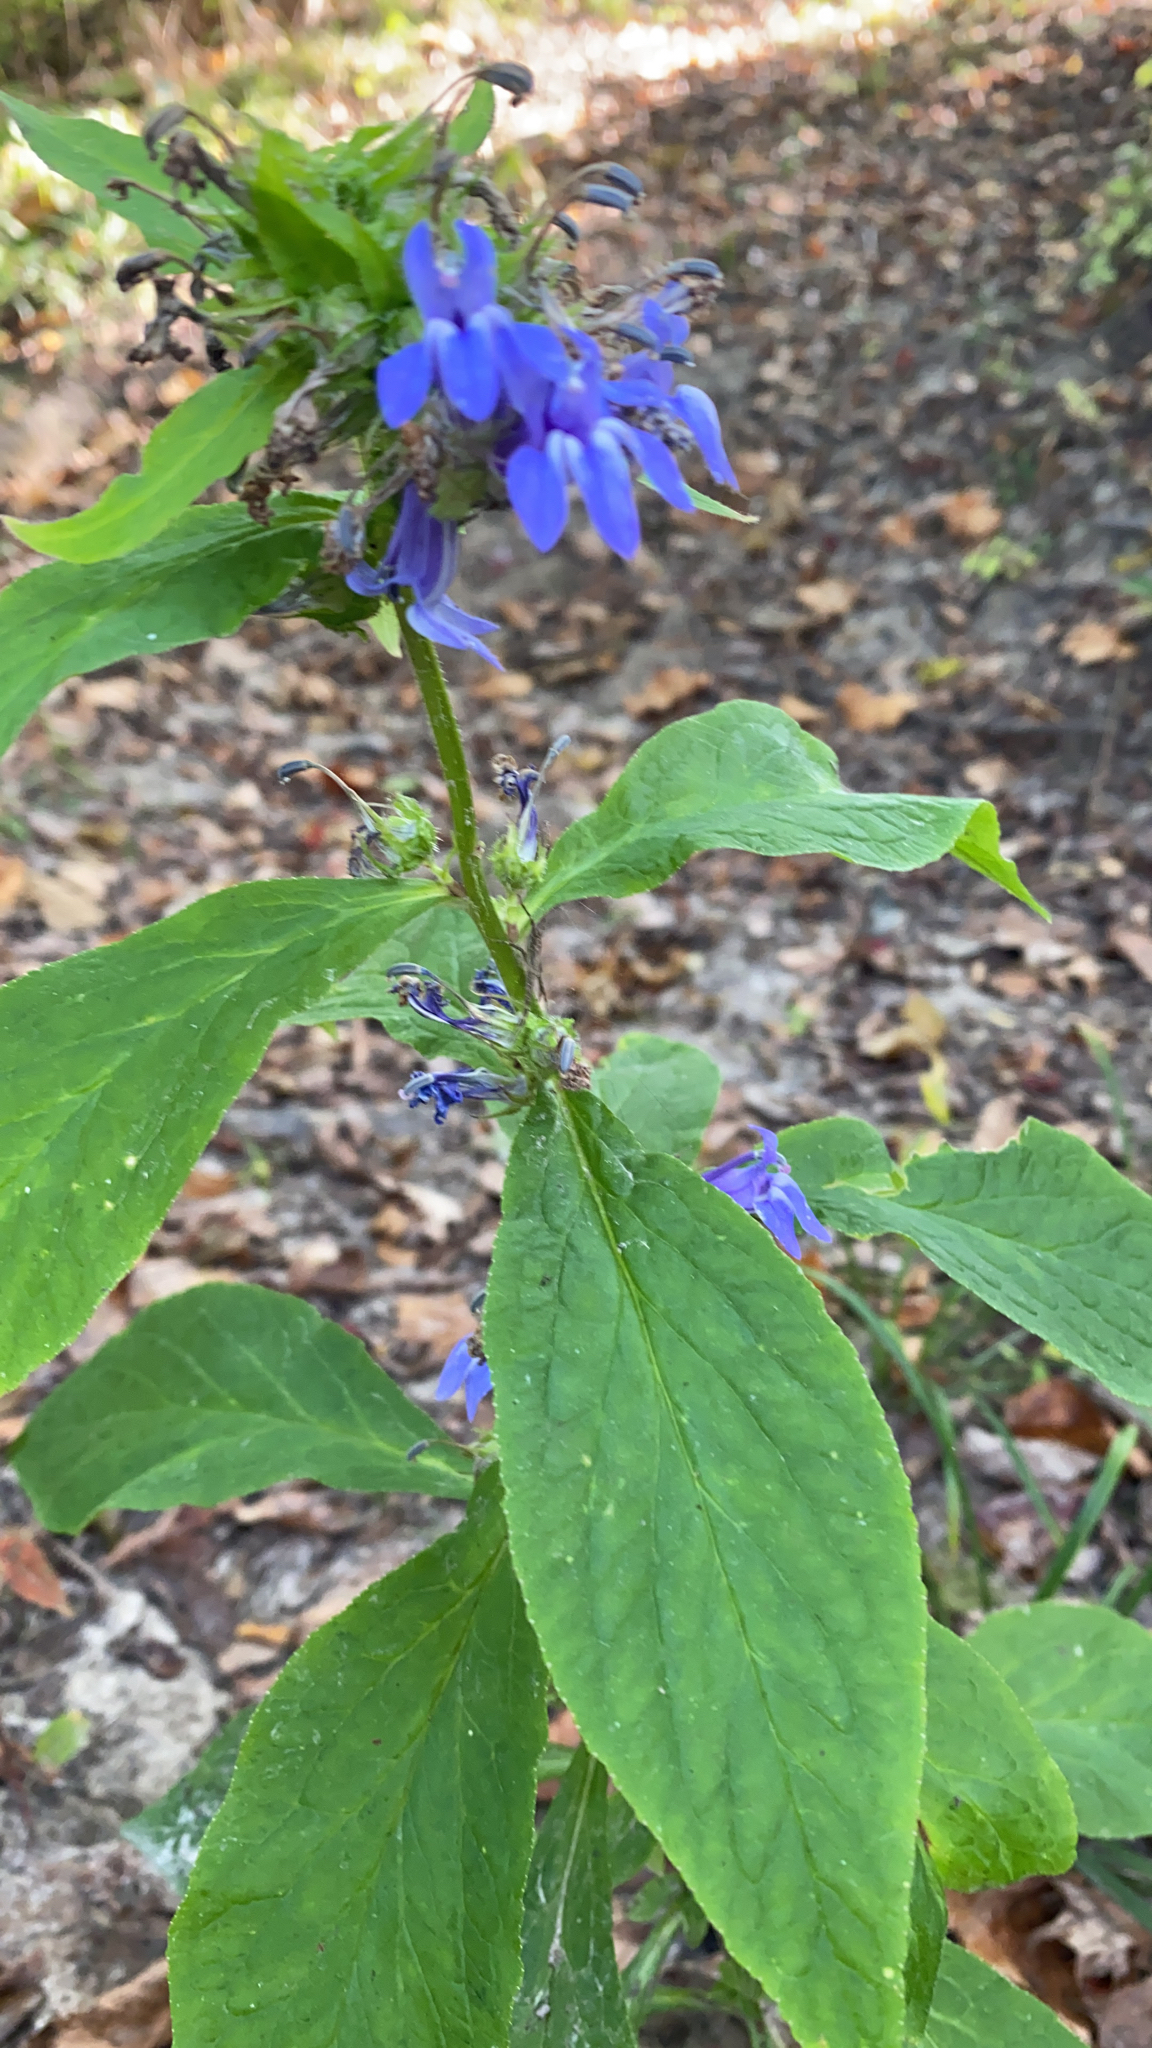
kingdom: Plantae
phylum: Tracheophyta
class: Magnoliopsida
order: Asterales
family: Campanulaceae
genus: Lobelia
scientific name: Lobelia siphilitica
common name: Great lobelia
